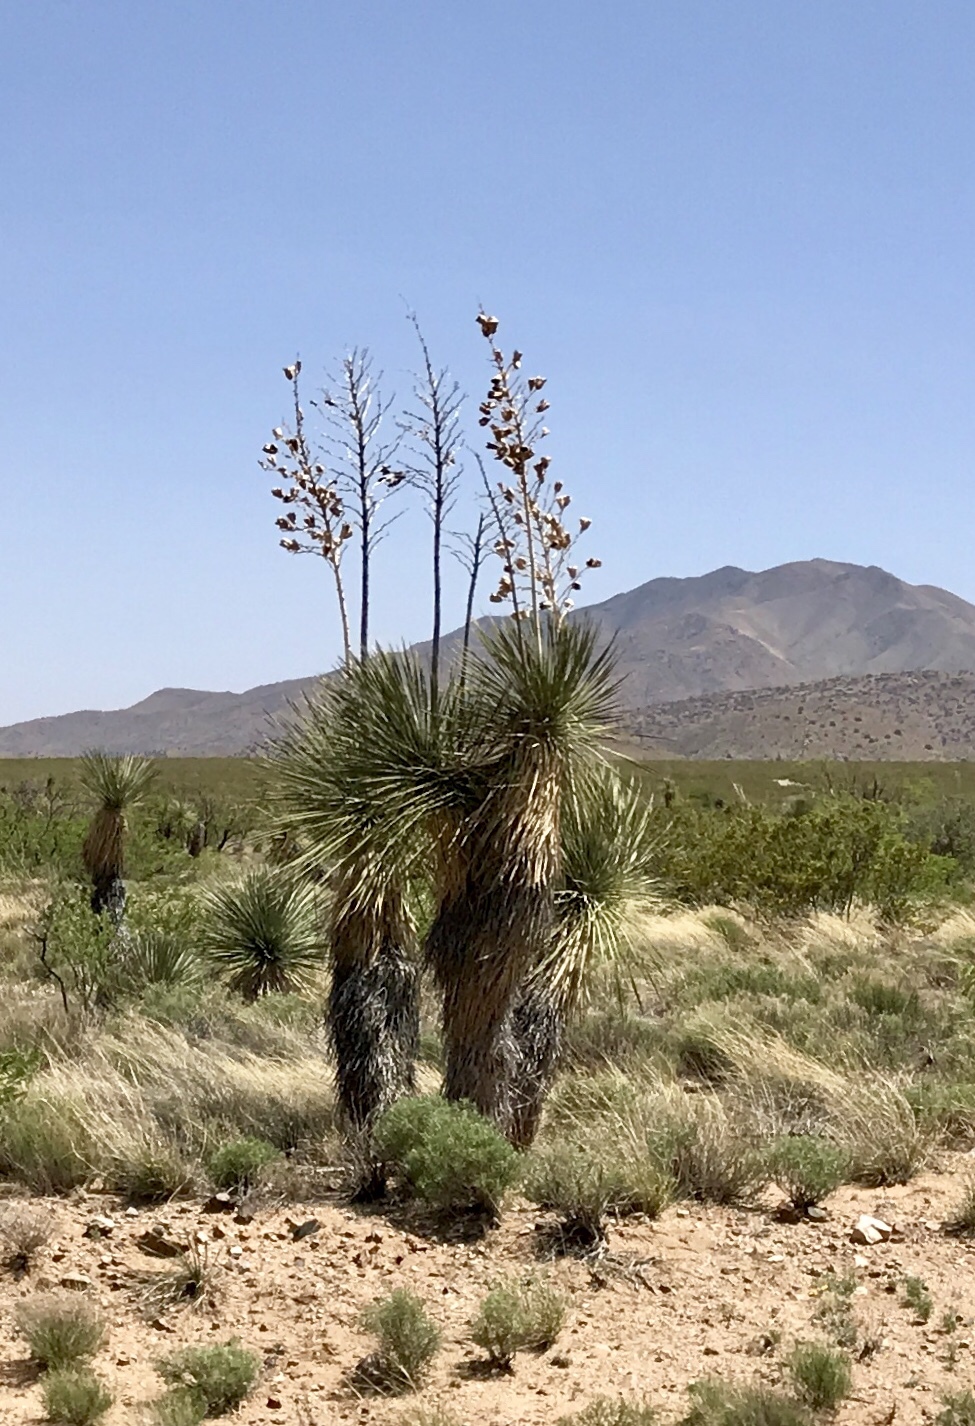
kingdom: Plantae
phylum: Tracheophyta
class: Liliopsida
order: Asparagales
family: Asparagaceae
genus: Yucca
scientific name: Yucca elata
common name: Palmella
